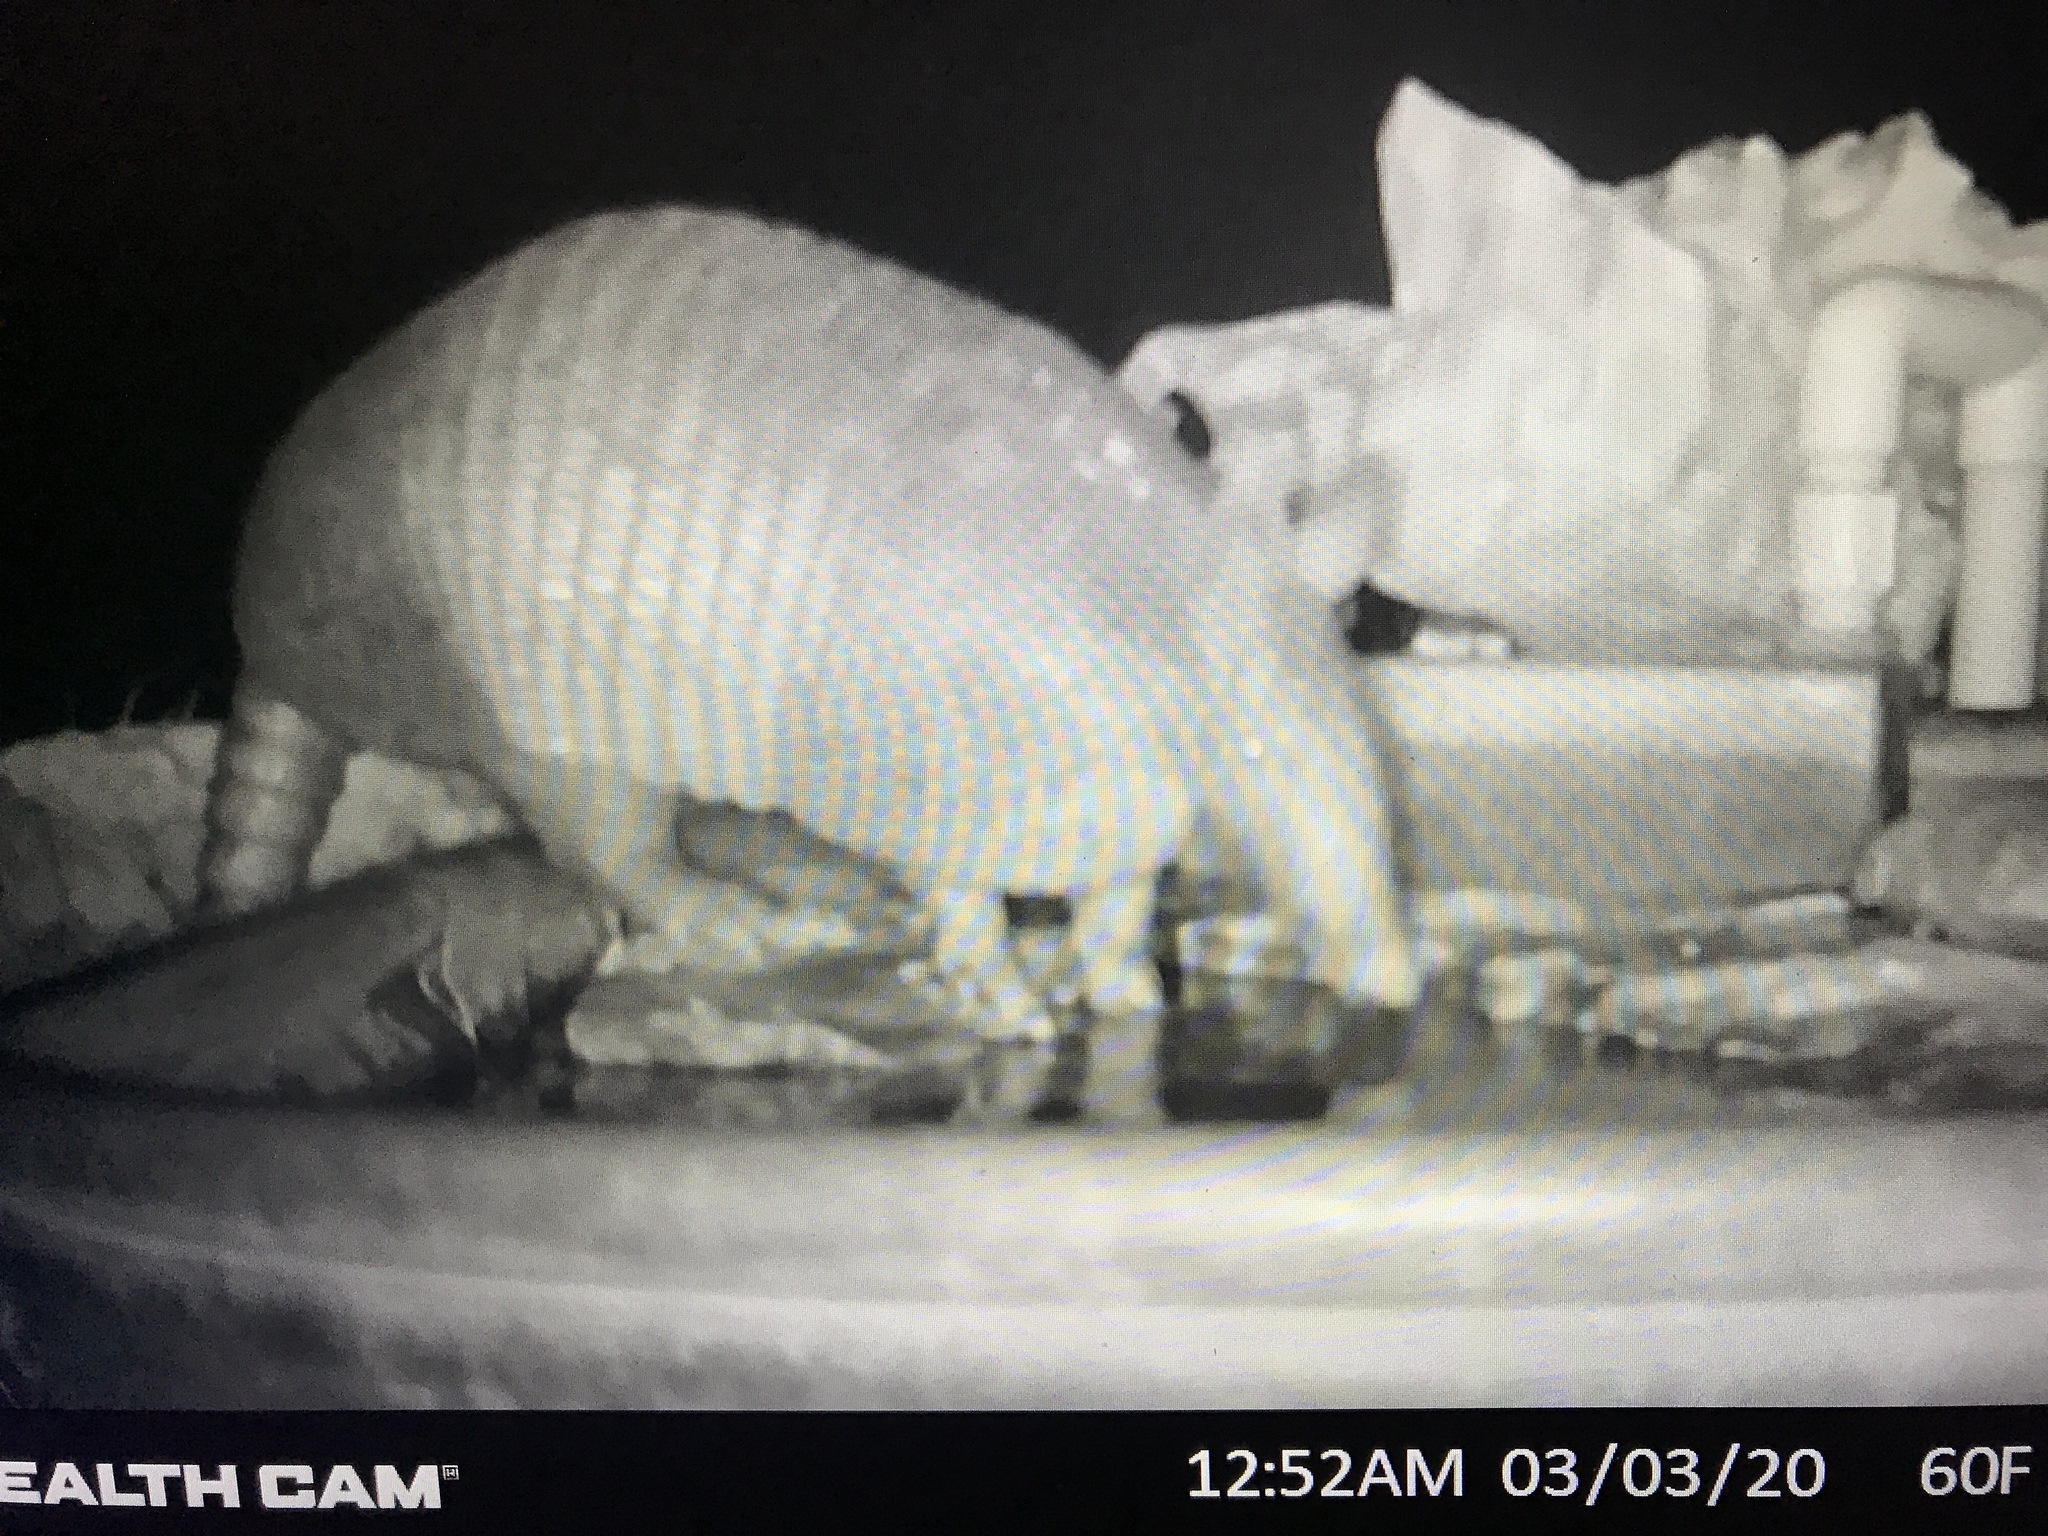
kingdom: Animalia
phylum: Chordata
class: Mammalia
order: Cingulata
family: Dasypodidae
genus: Dasypus
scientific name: Dasypus novemcinctus
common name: Nine-banded armadillo
